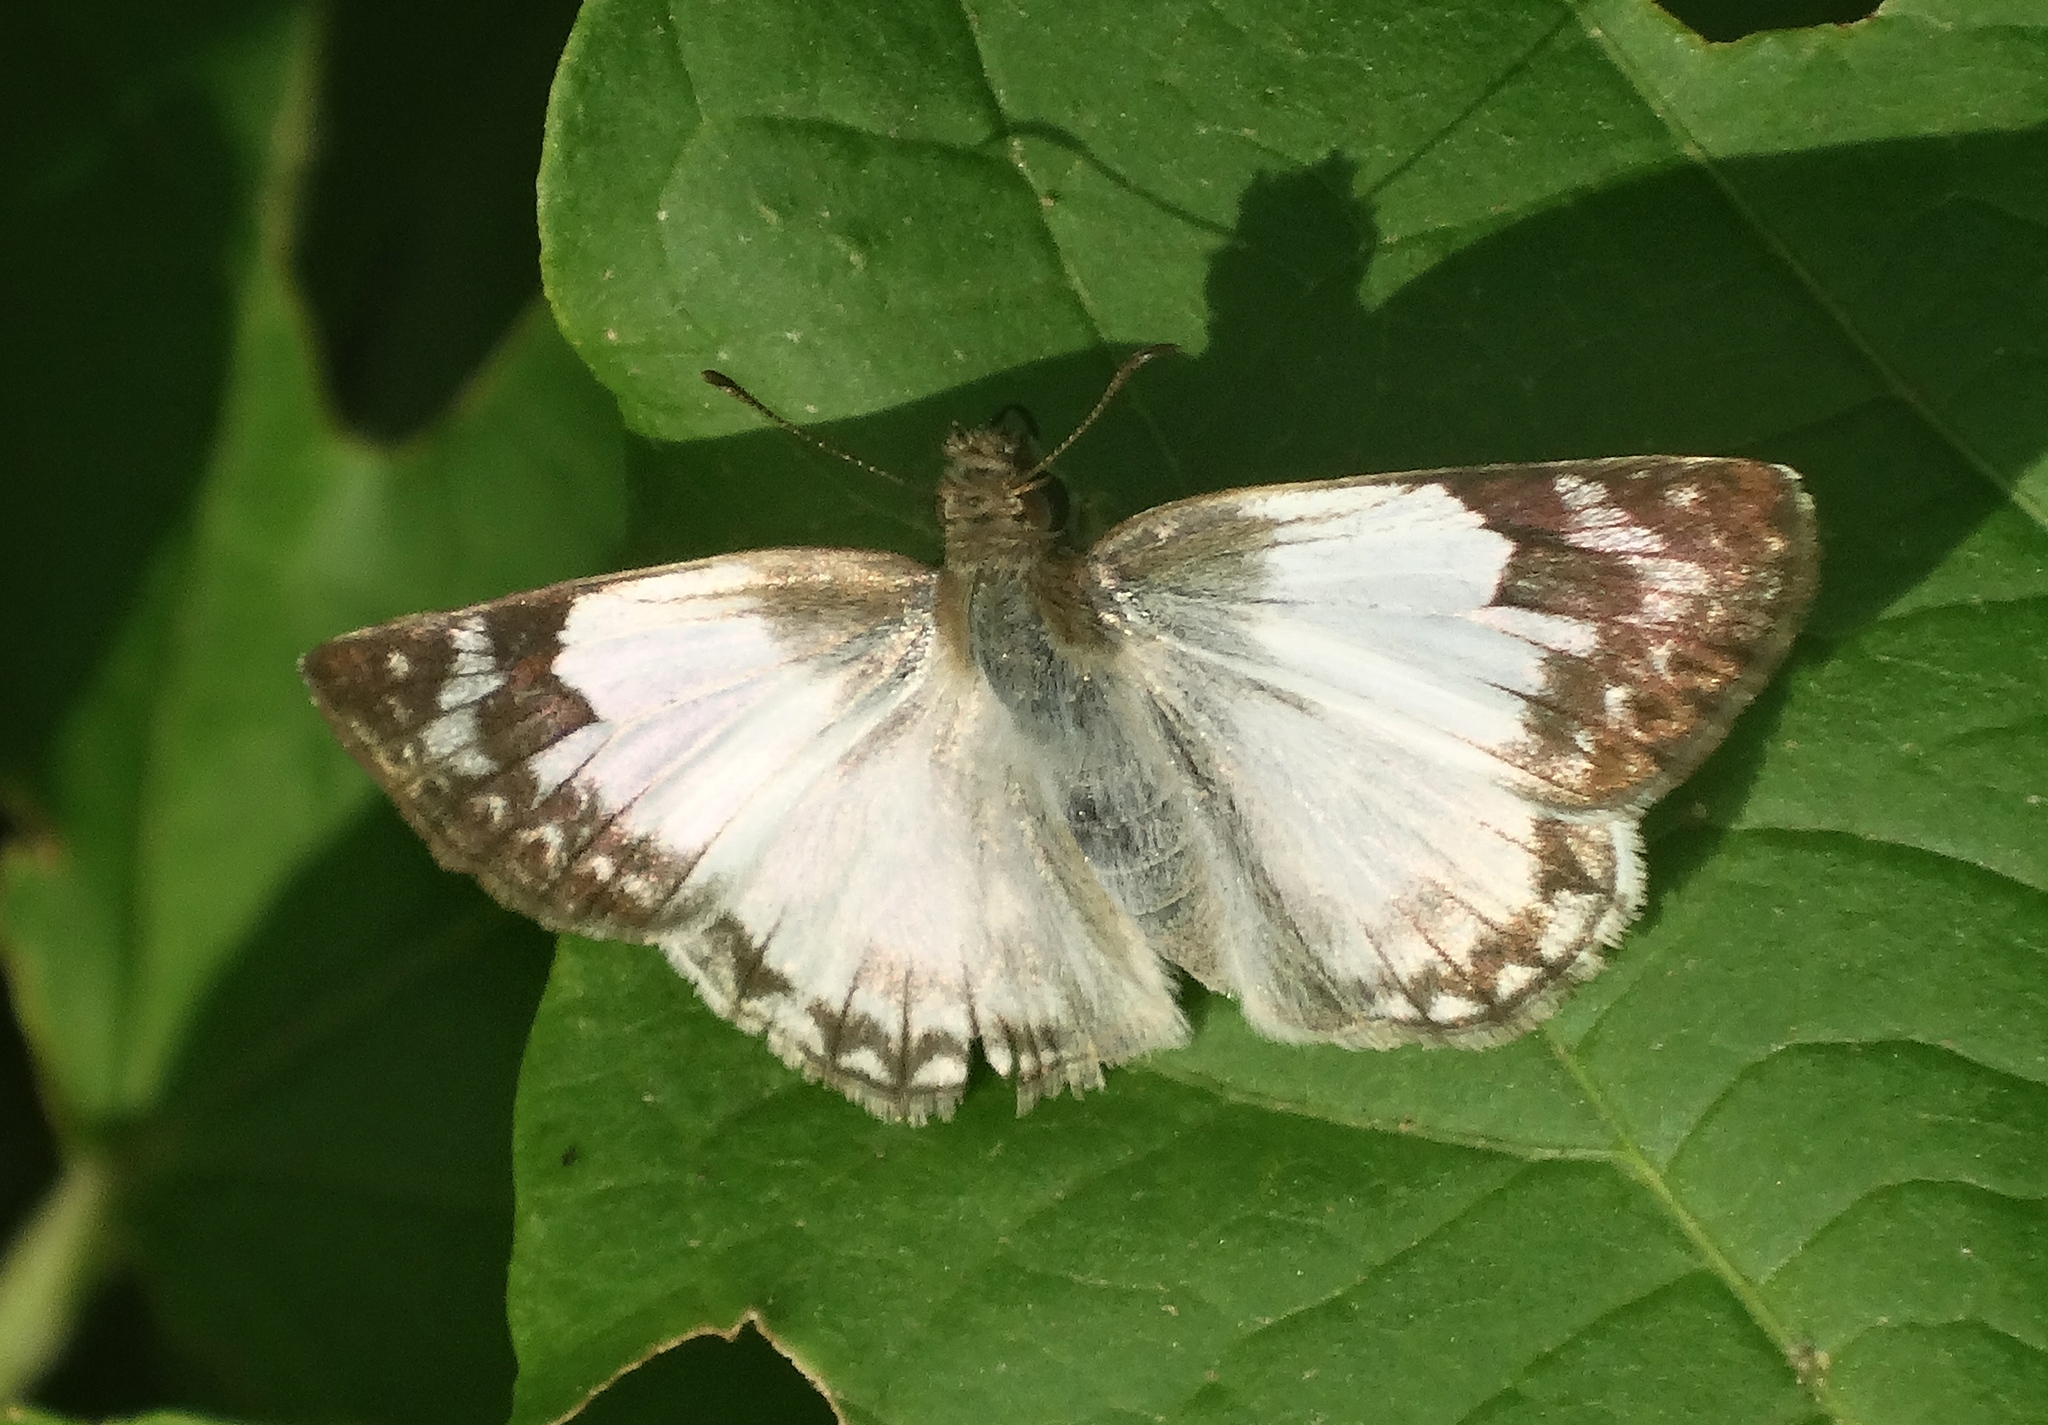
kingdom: Animalia
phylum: Arthropoda
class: Insecta
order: Lepidoptera
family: Hesperiidae
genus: Heliopetes
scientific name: Heliopetes laviana
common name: Laviana white-skipper
